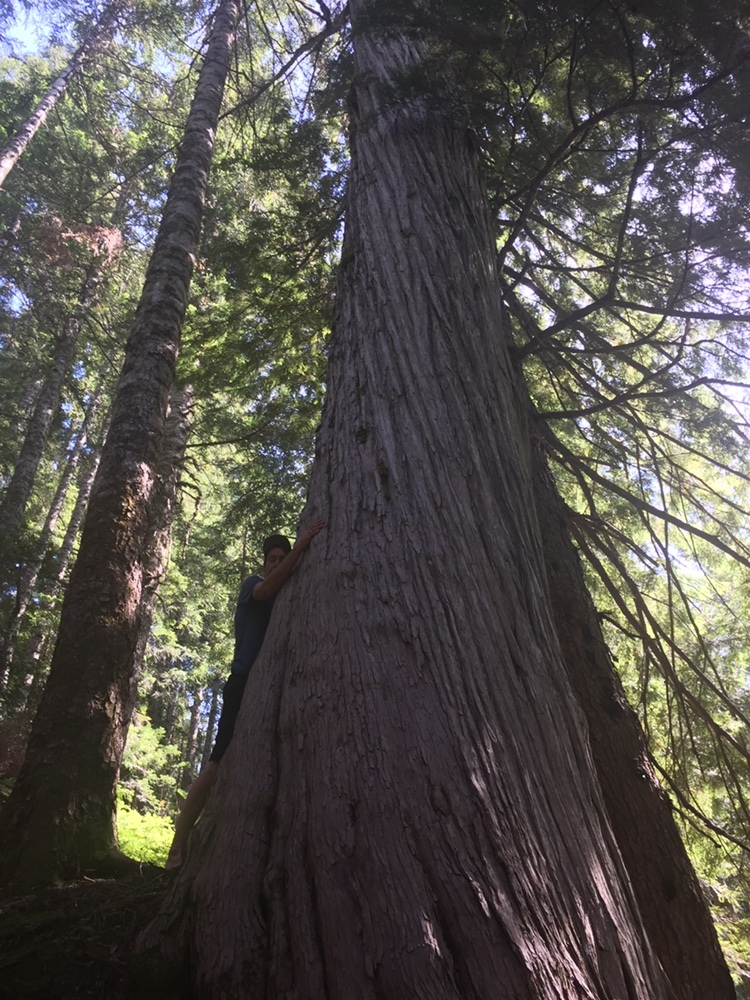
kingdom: Plantae
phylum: Tracheophyta
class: Pinopsida
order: Pinales
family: Cupressaceae
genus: Thuja
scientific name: Thuja plicata
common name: Western red-cedar
